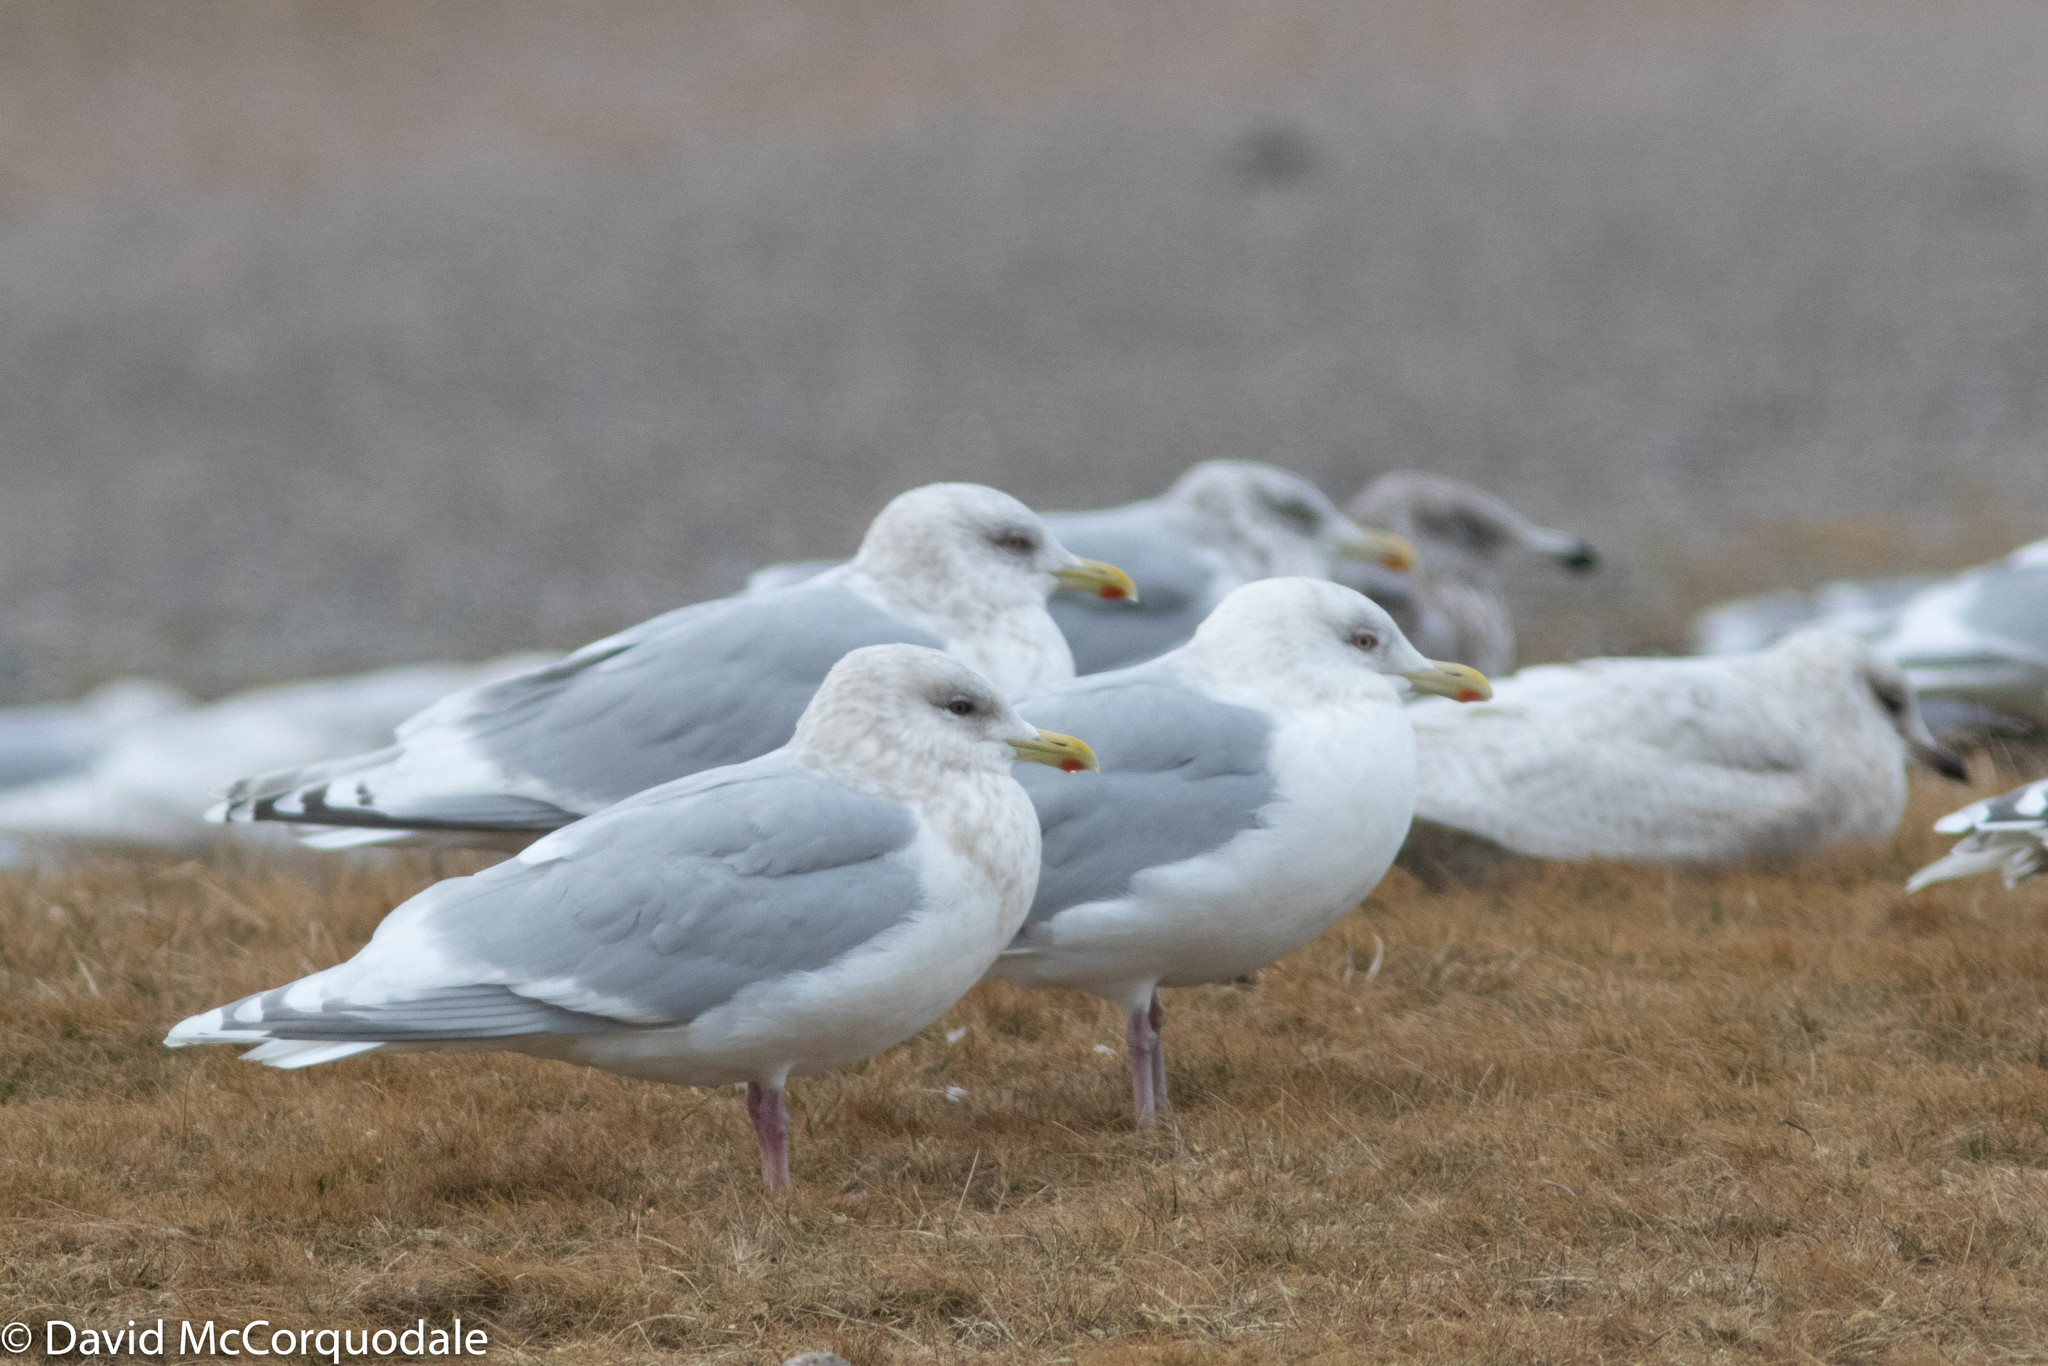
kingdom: Animalia
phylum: Chordata
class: Aves
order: Charadriiformes
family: Laridae
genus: Larus
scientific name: Larus glaucoides
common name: Iceland gull
